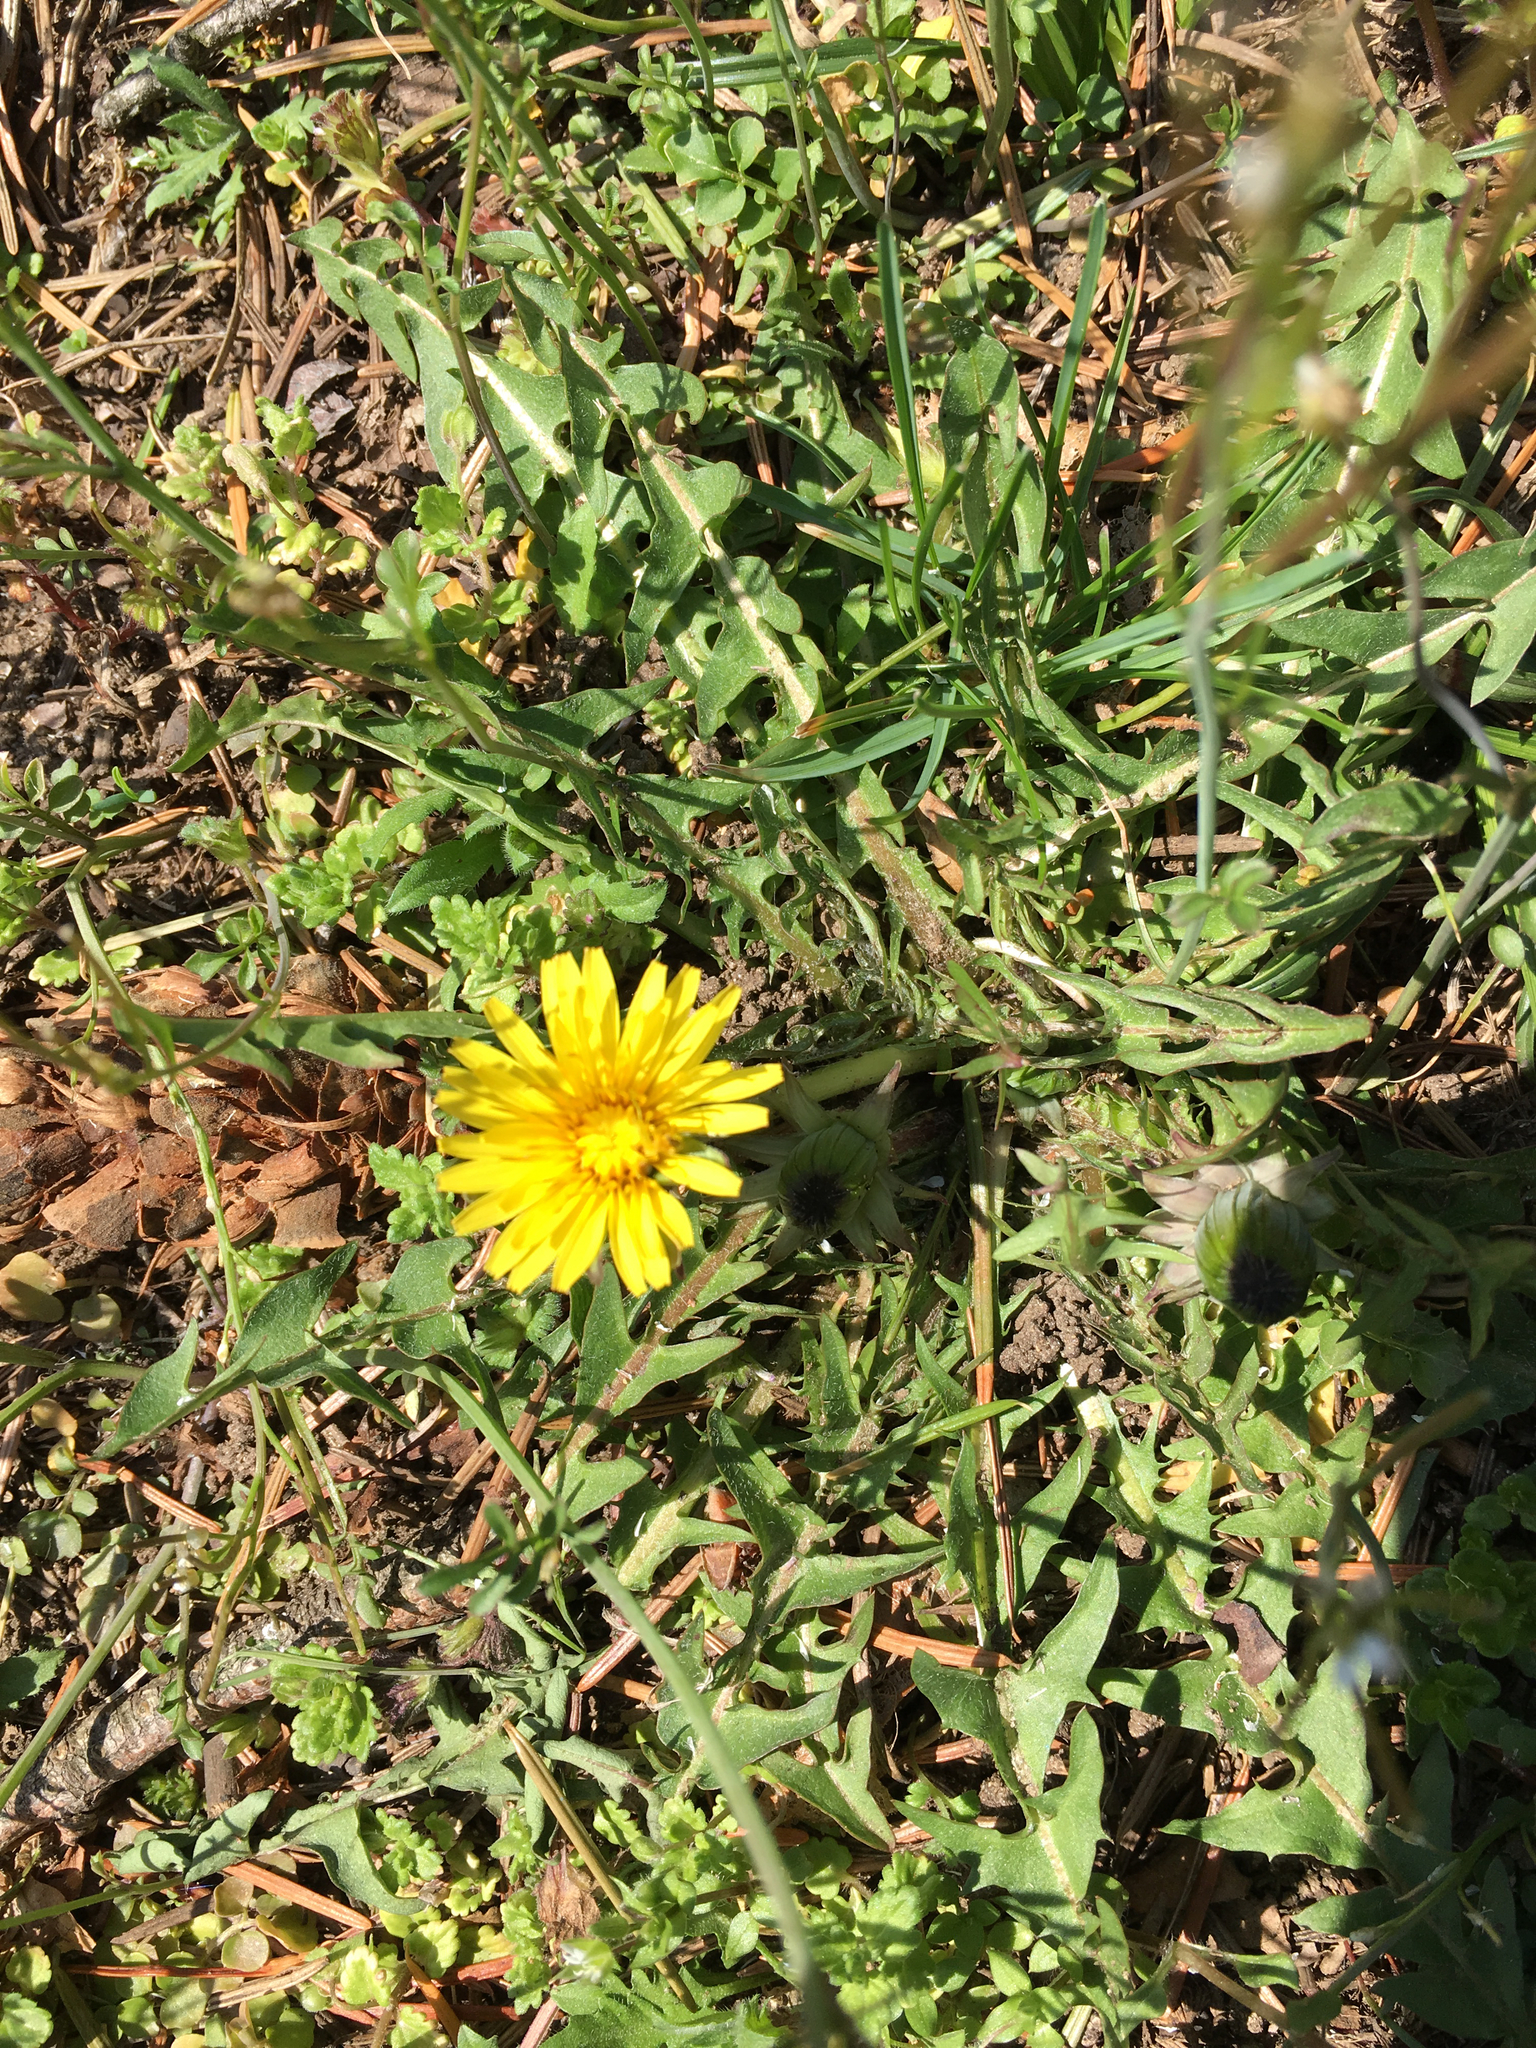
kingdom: Plantae
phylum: Tracheophyta
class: Magnoliopsida
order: Asterales
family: Asteraceae
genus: Taraxacum
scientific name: Taraxacum officinale
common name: Common dandelion
